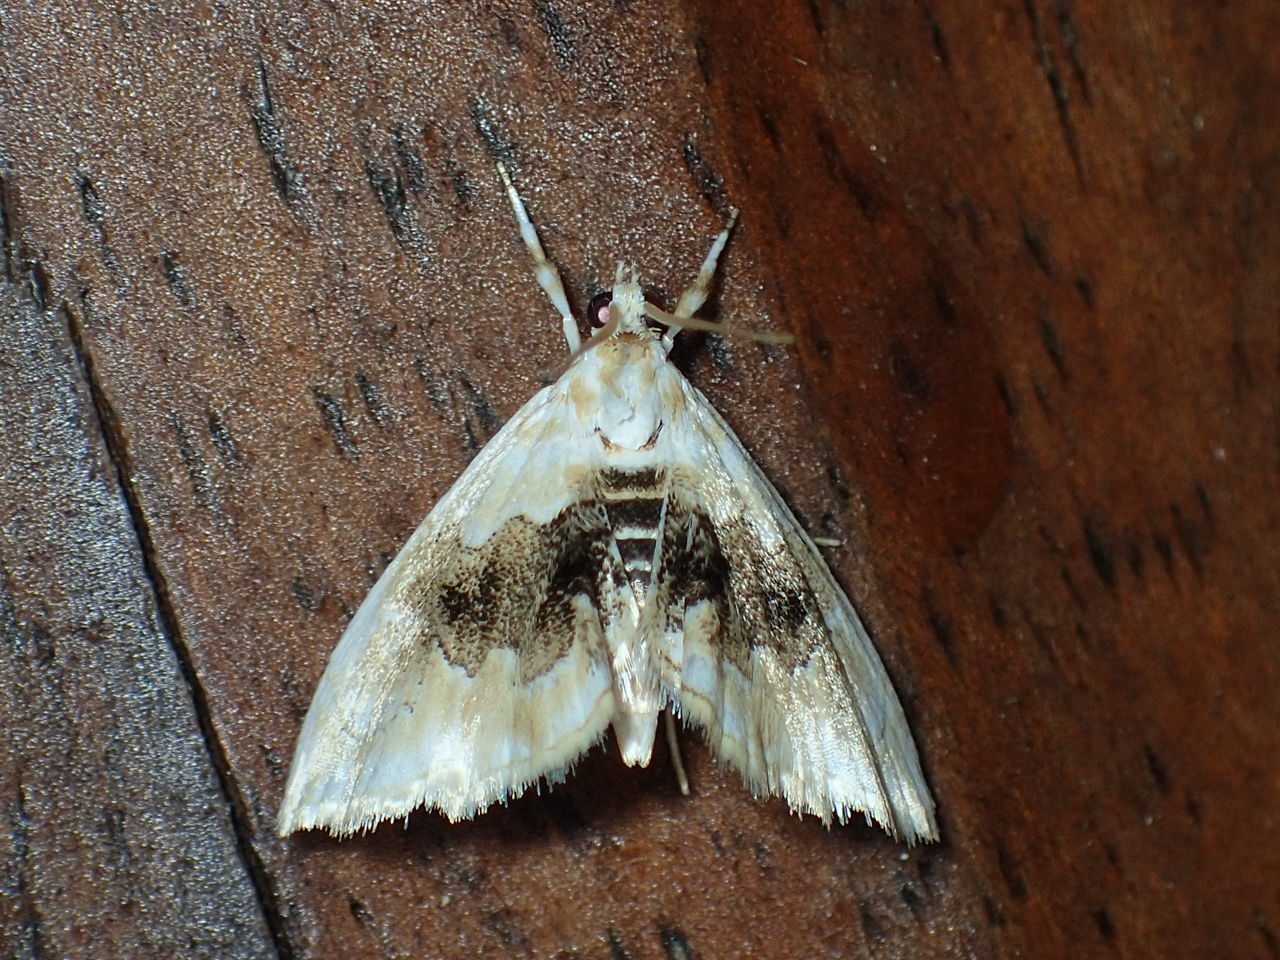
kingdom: Animalia
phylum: Arthropoda
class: Insecta
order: Lepidoptera
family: Crambidae
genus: Lipocosma
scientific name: Lipocosma sicalis
